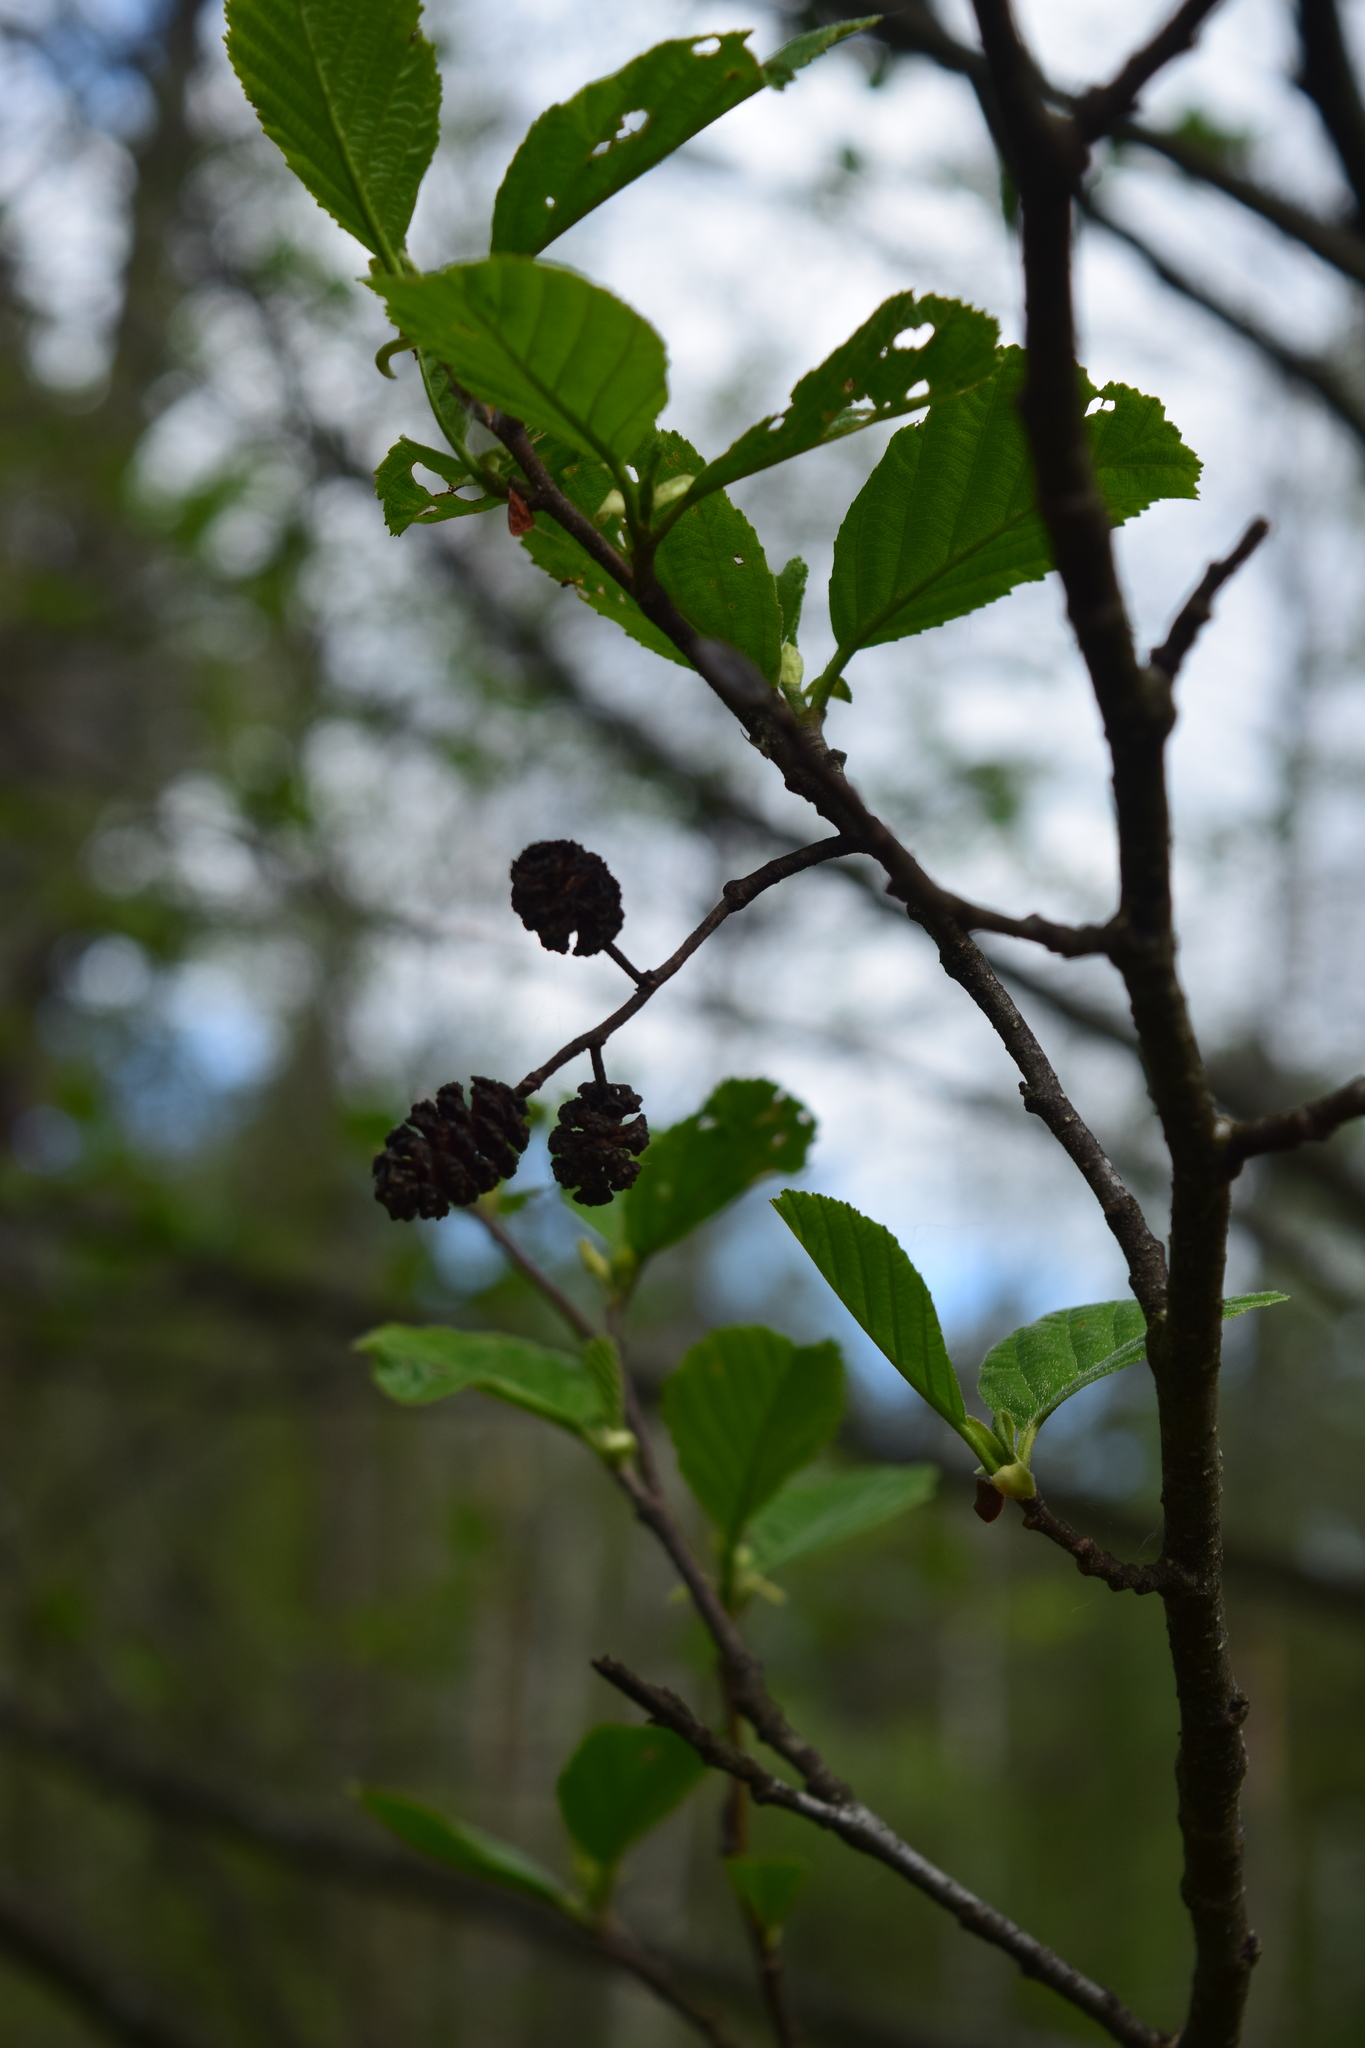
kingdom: Plantae
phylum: Tracheophyta
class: Magnoliopsida
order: Fagales
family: Betulaceae
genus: Alnus
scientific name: Alnus glutinosa
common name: Black alder
